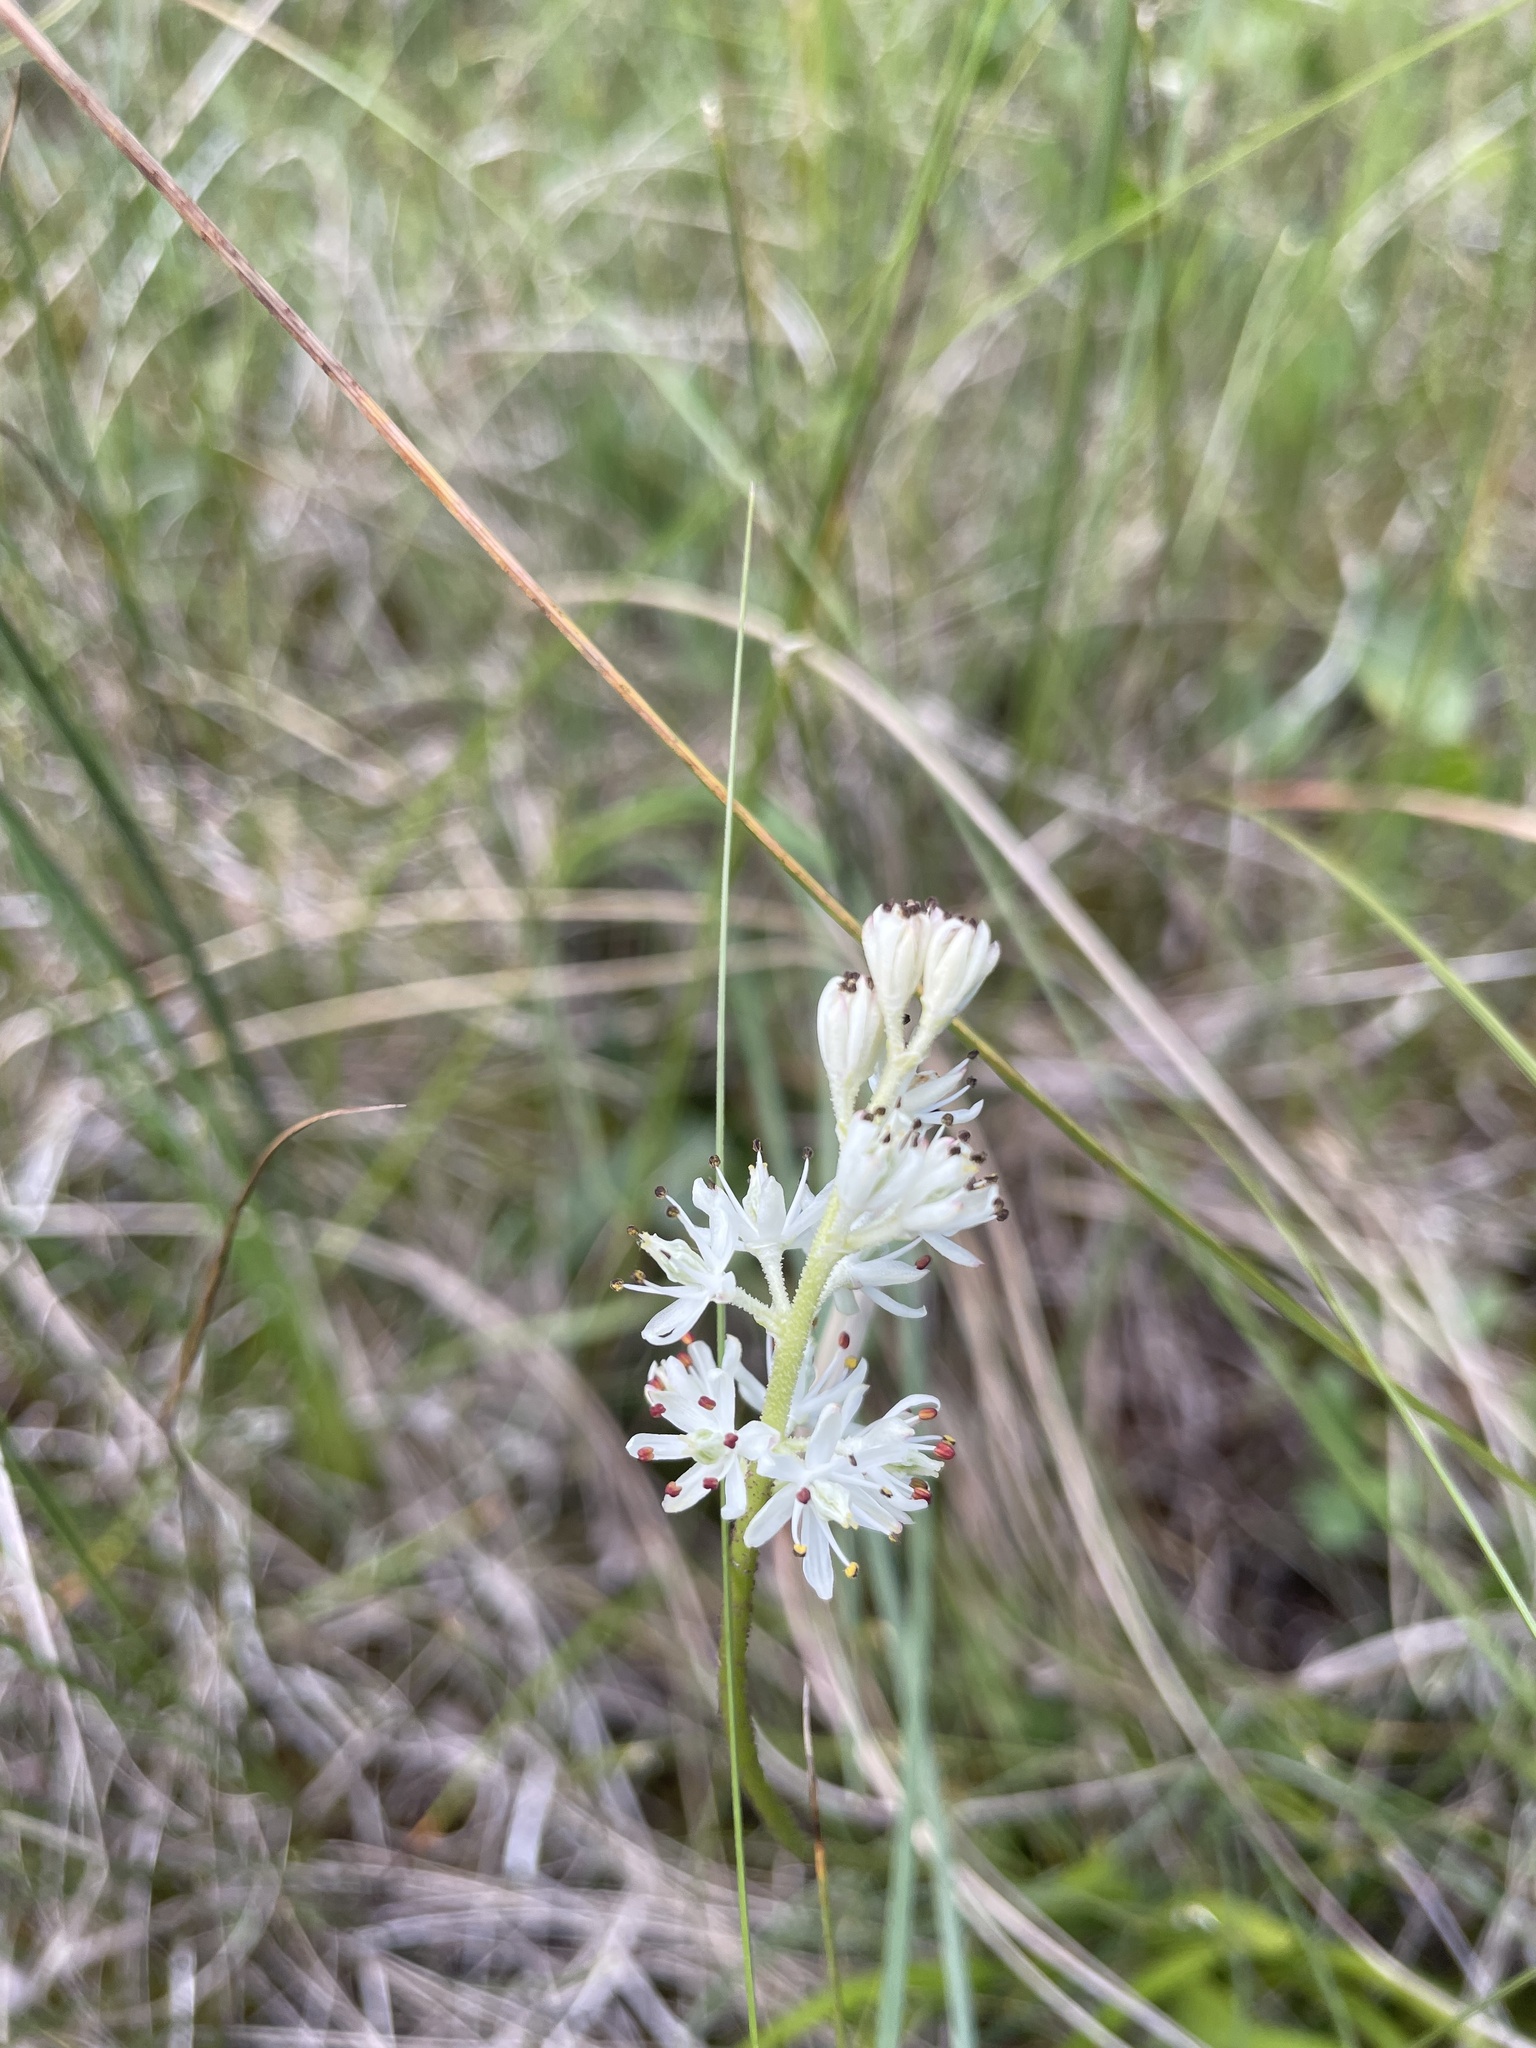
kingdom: Plantae
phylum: Tracheophyta
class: Liliopsida
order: Alismatales
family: Tofieldiaceae
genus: Triantha
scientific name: Triantha glutinosa
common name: Glutinous tofieldia
